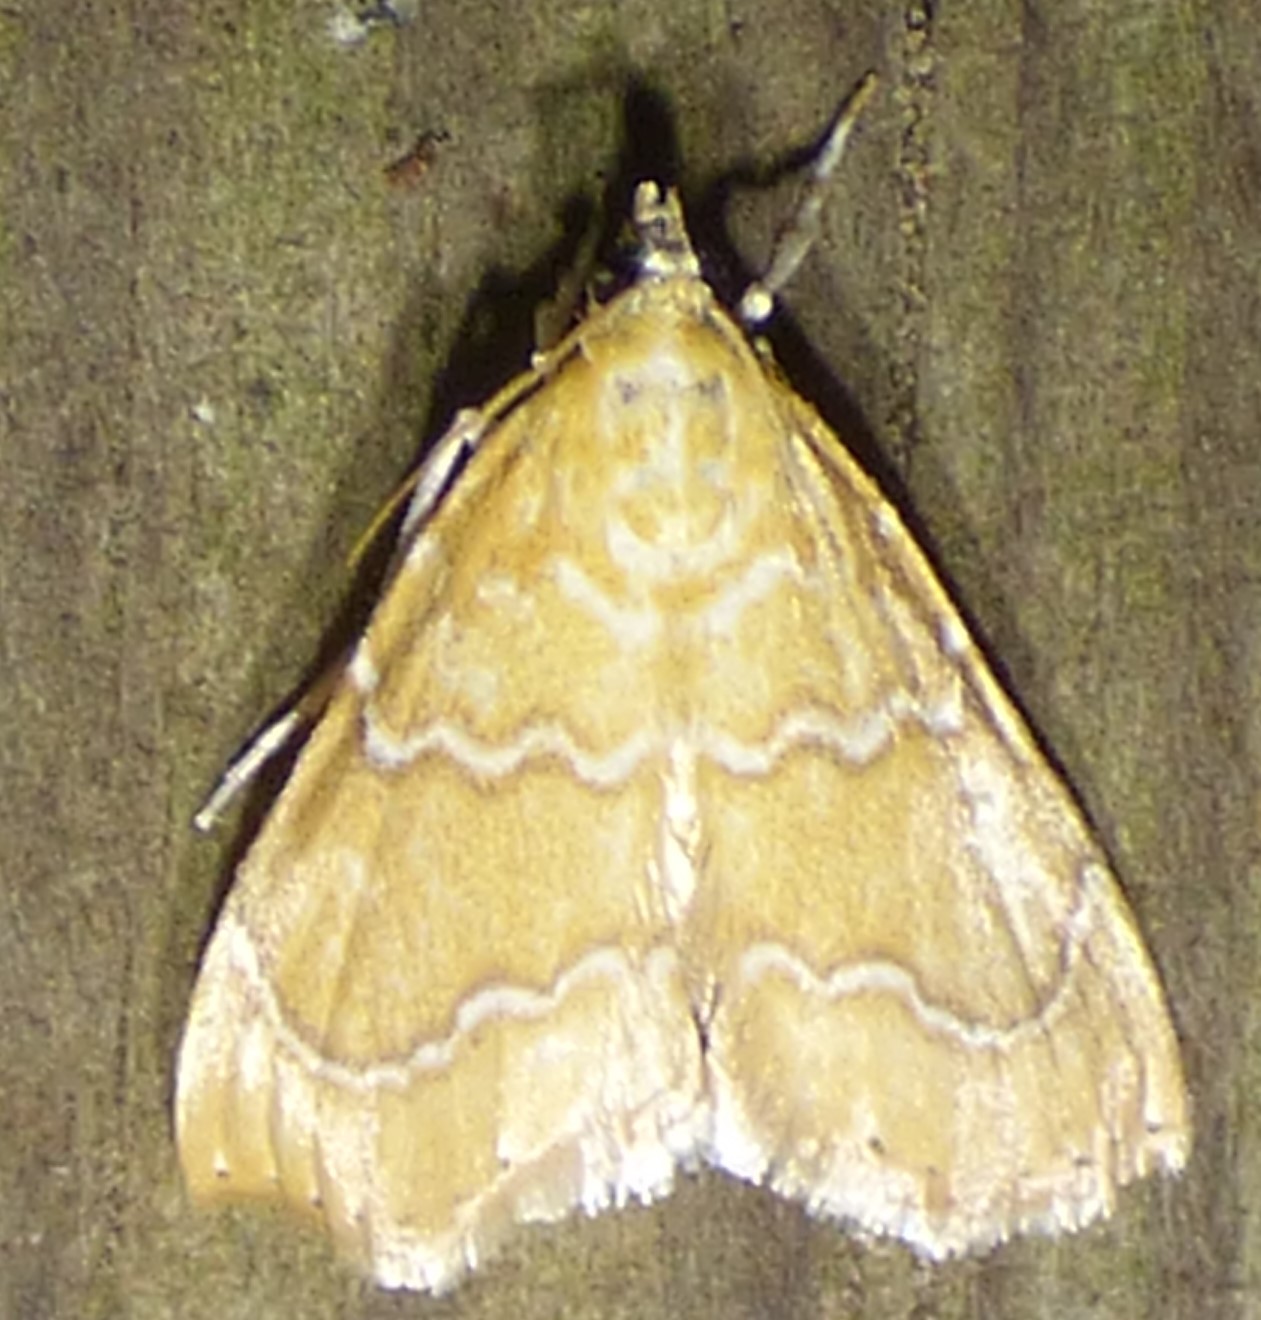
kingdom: Animalia
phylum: Arthropoda
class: Insecta
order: Lepidoptera
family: Crambidae
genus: Glaphyria
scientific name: Glaphyria sesquistrialis
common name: White-roped glaphyria
